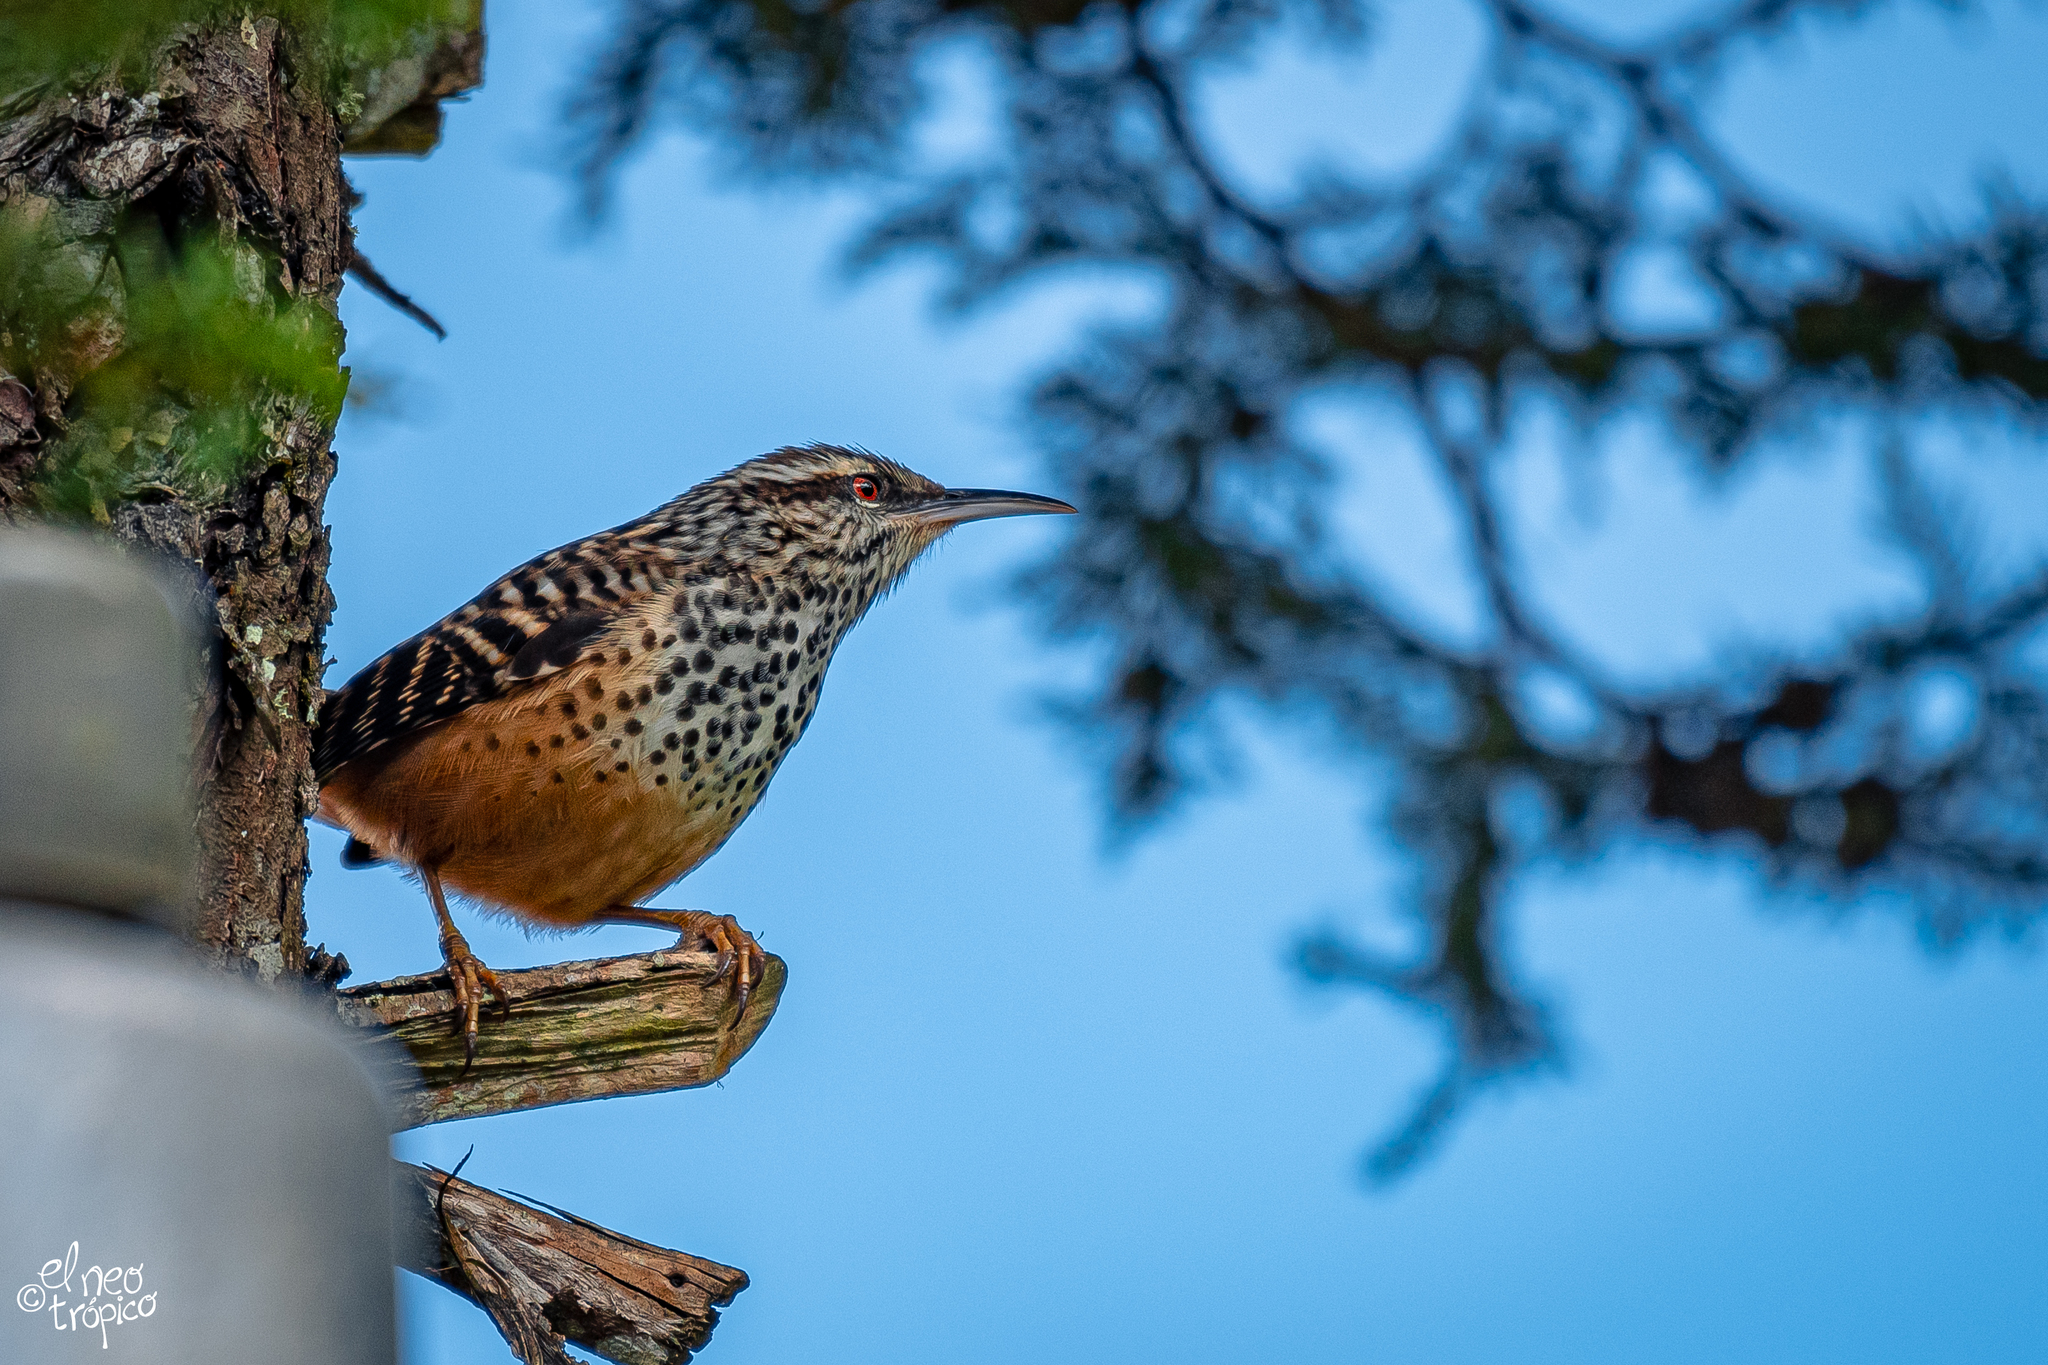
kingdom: Animalia
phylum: Chordata
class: Aves
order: Passeriformes
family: Troglodytidae
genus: Campylorhynchus
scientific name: Campylorhynchus zonatus
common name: Band-backed wren
